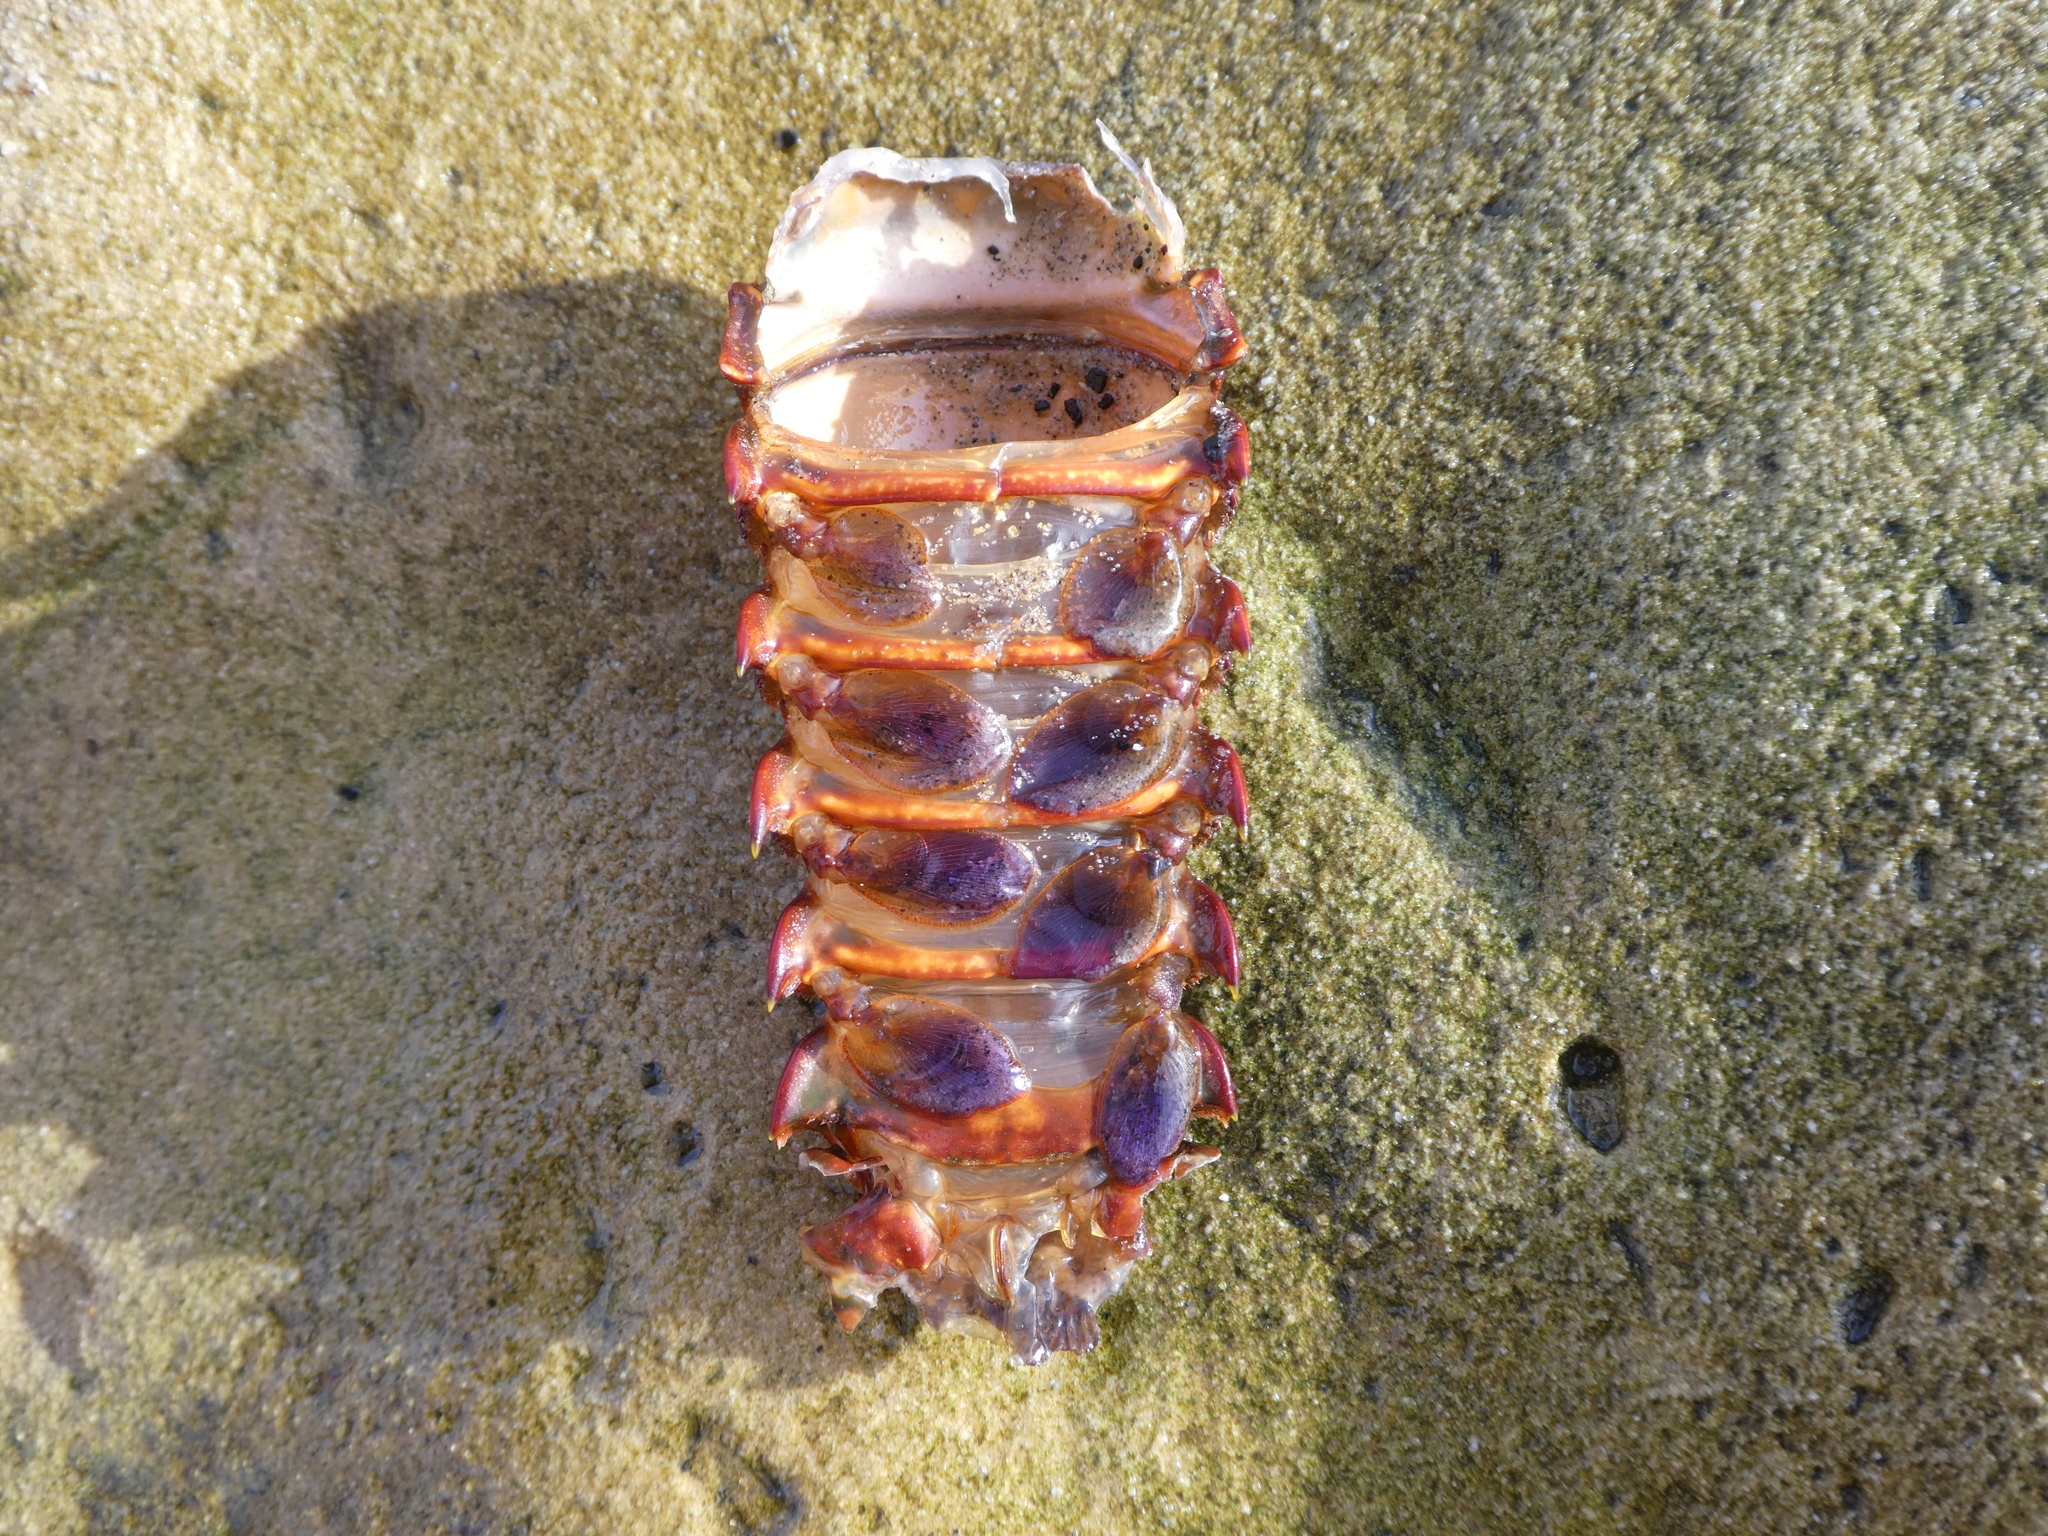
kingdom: Animalia
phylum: Arthropoda
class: Malacostraca
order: Decapoda
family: Palinuridae
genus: Panulirus
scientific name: Panulirus interruptus
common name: California spiny lobster
